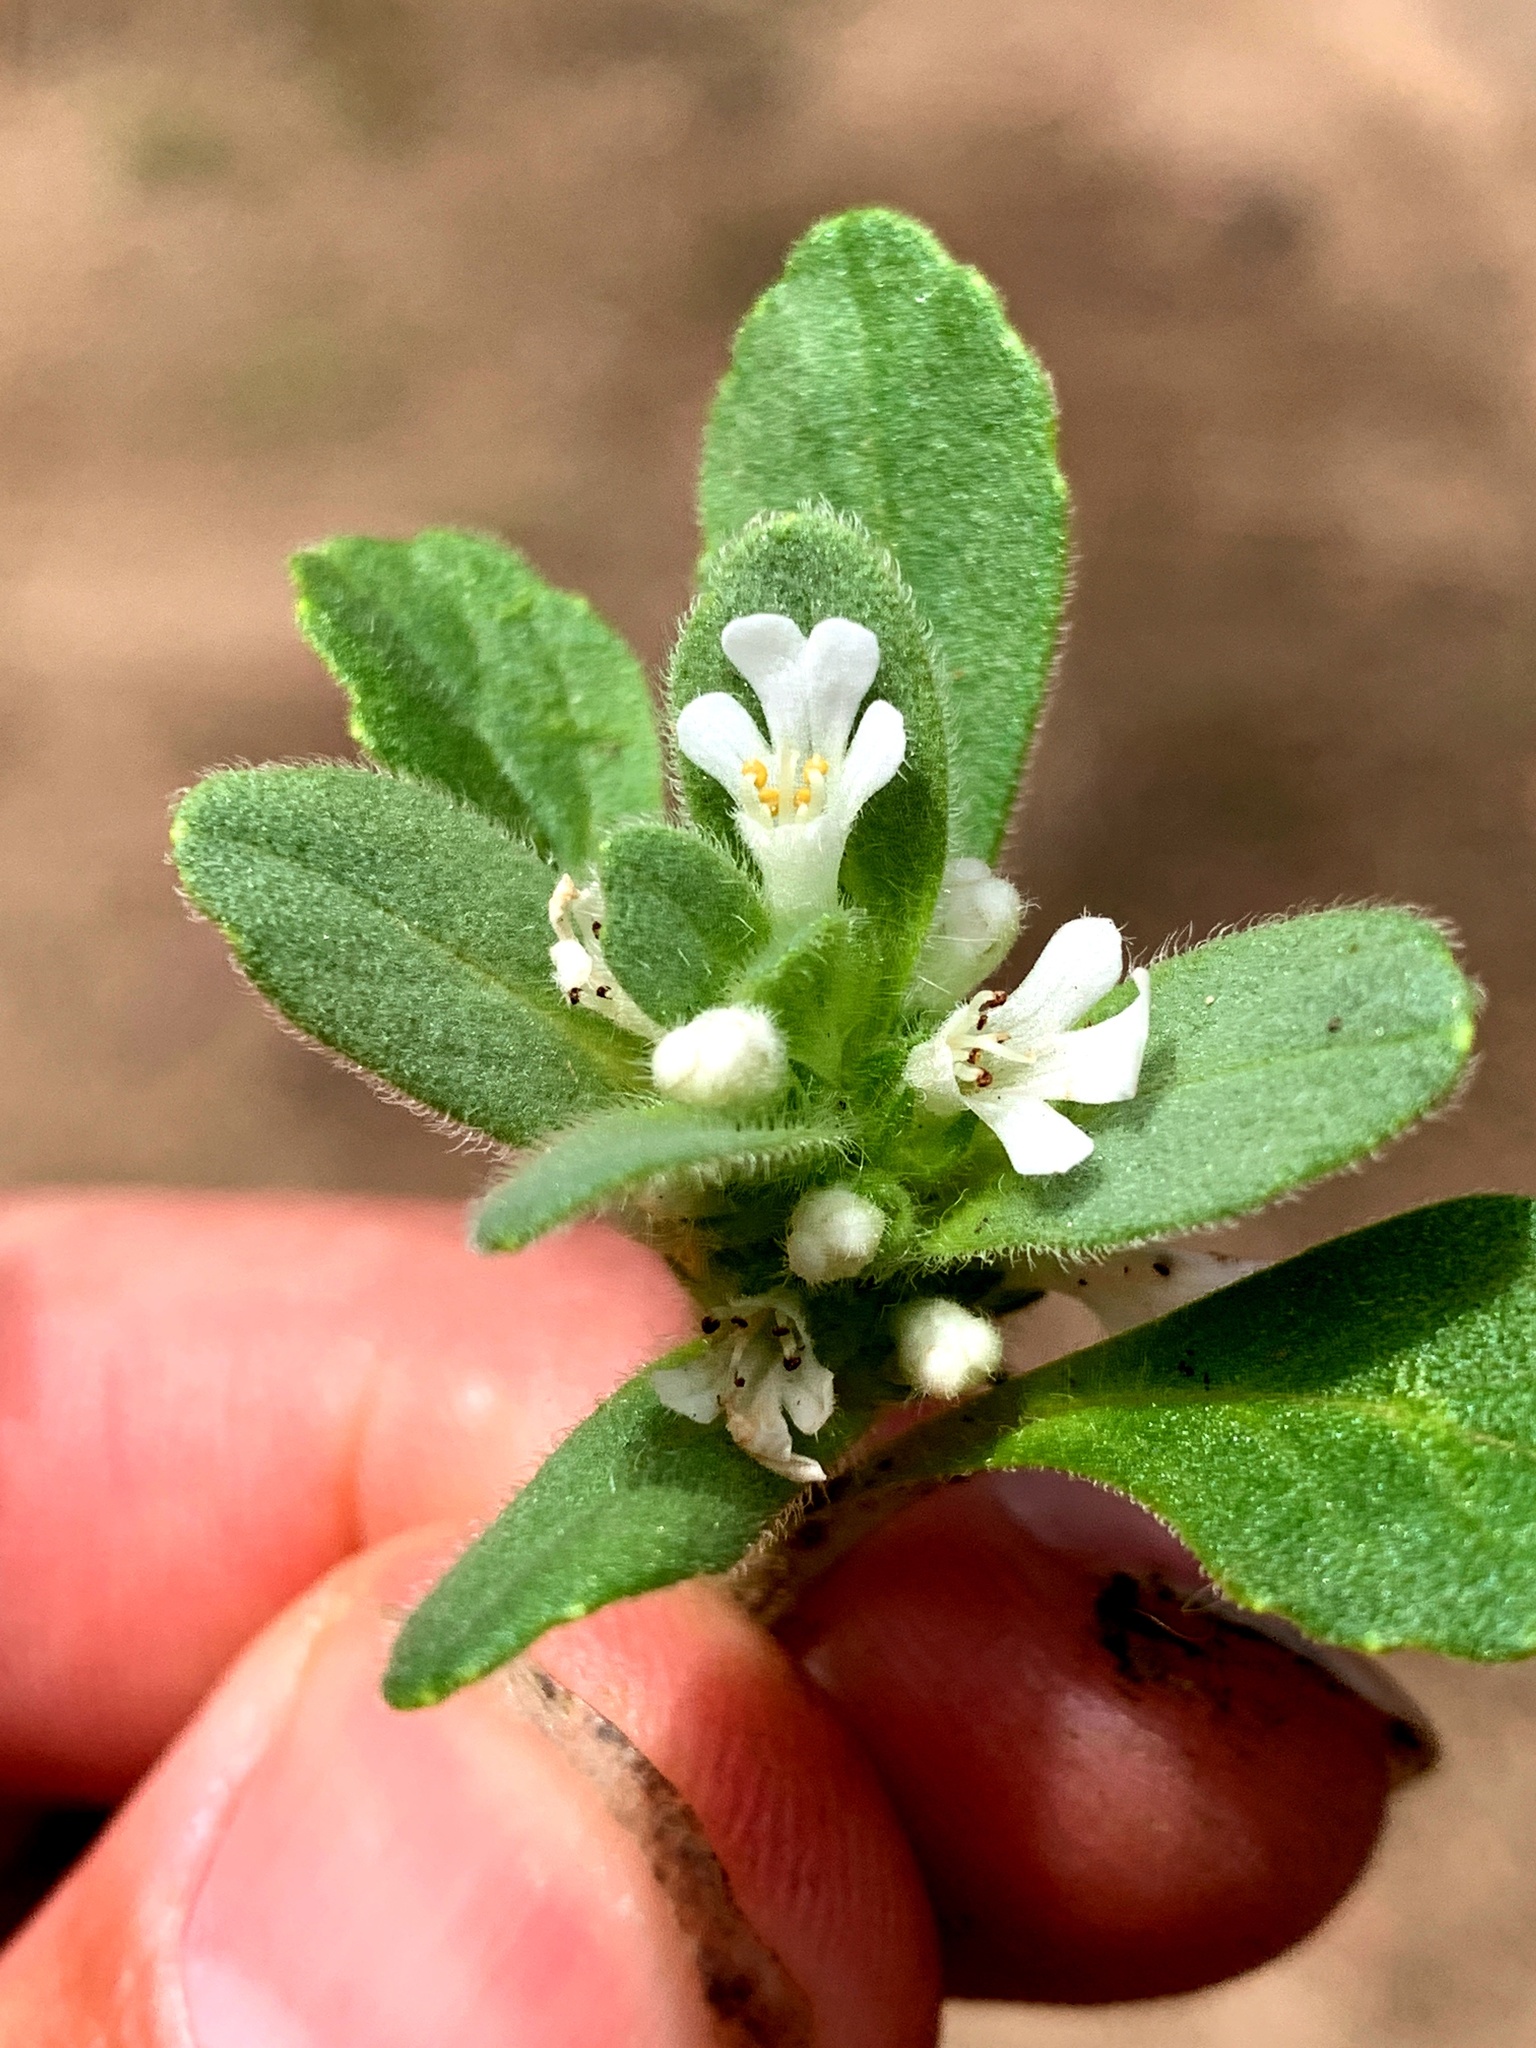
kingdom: Plantae
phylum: Tracheophyta
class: Magnoliopsida
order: Lamiales
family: Lamiaceae
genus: Ajuga
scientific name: Ajuga australis
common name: Australian bugle
